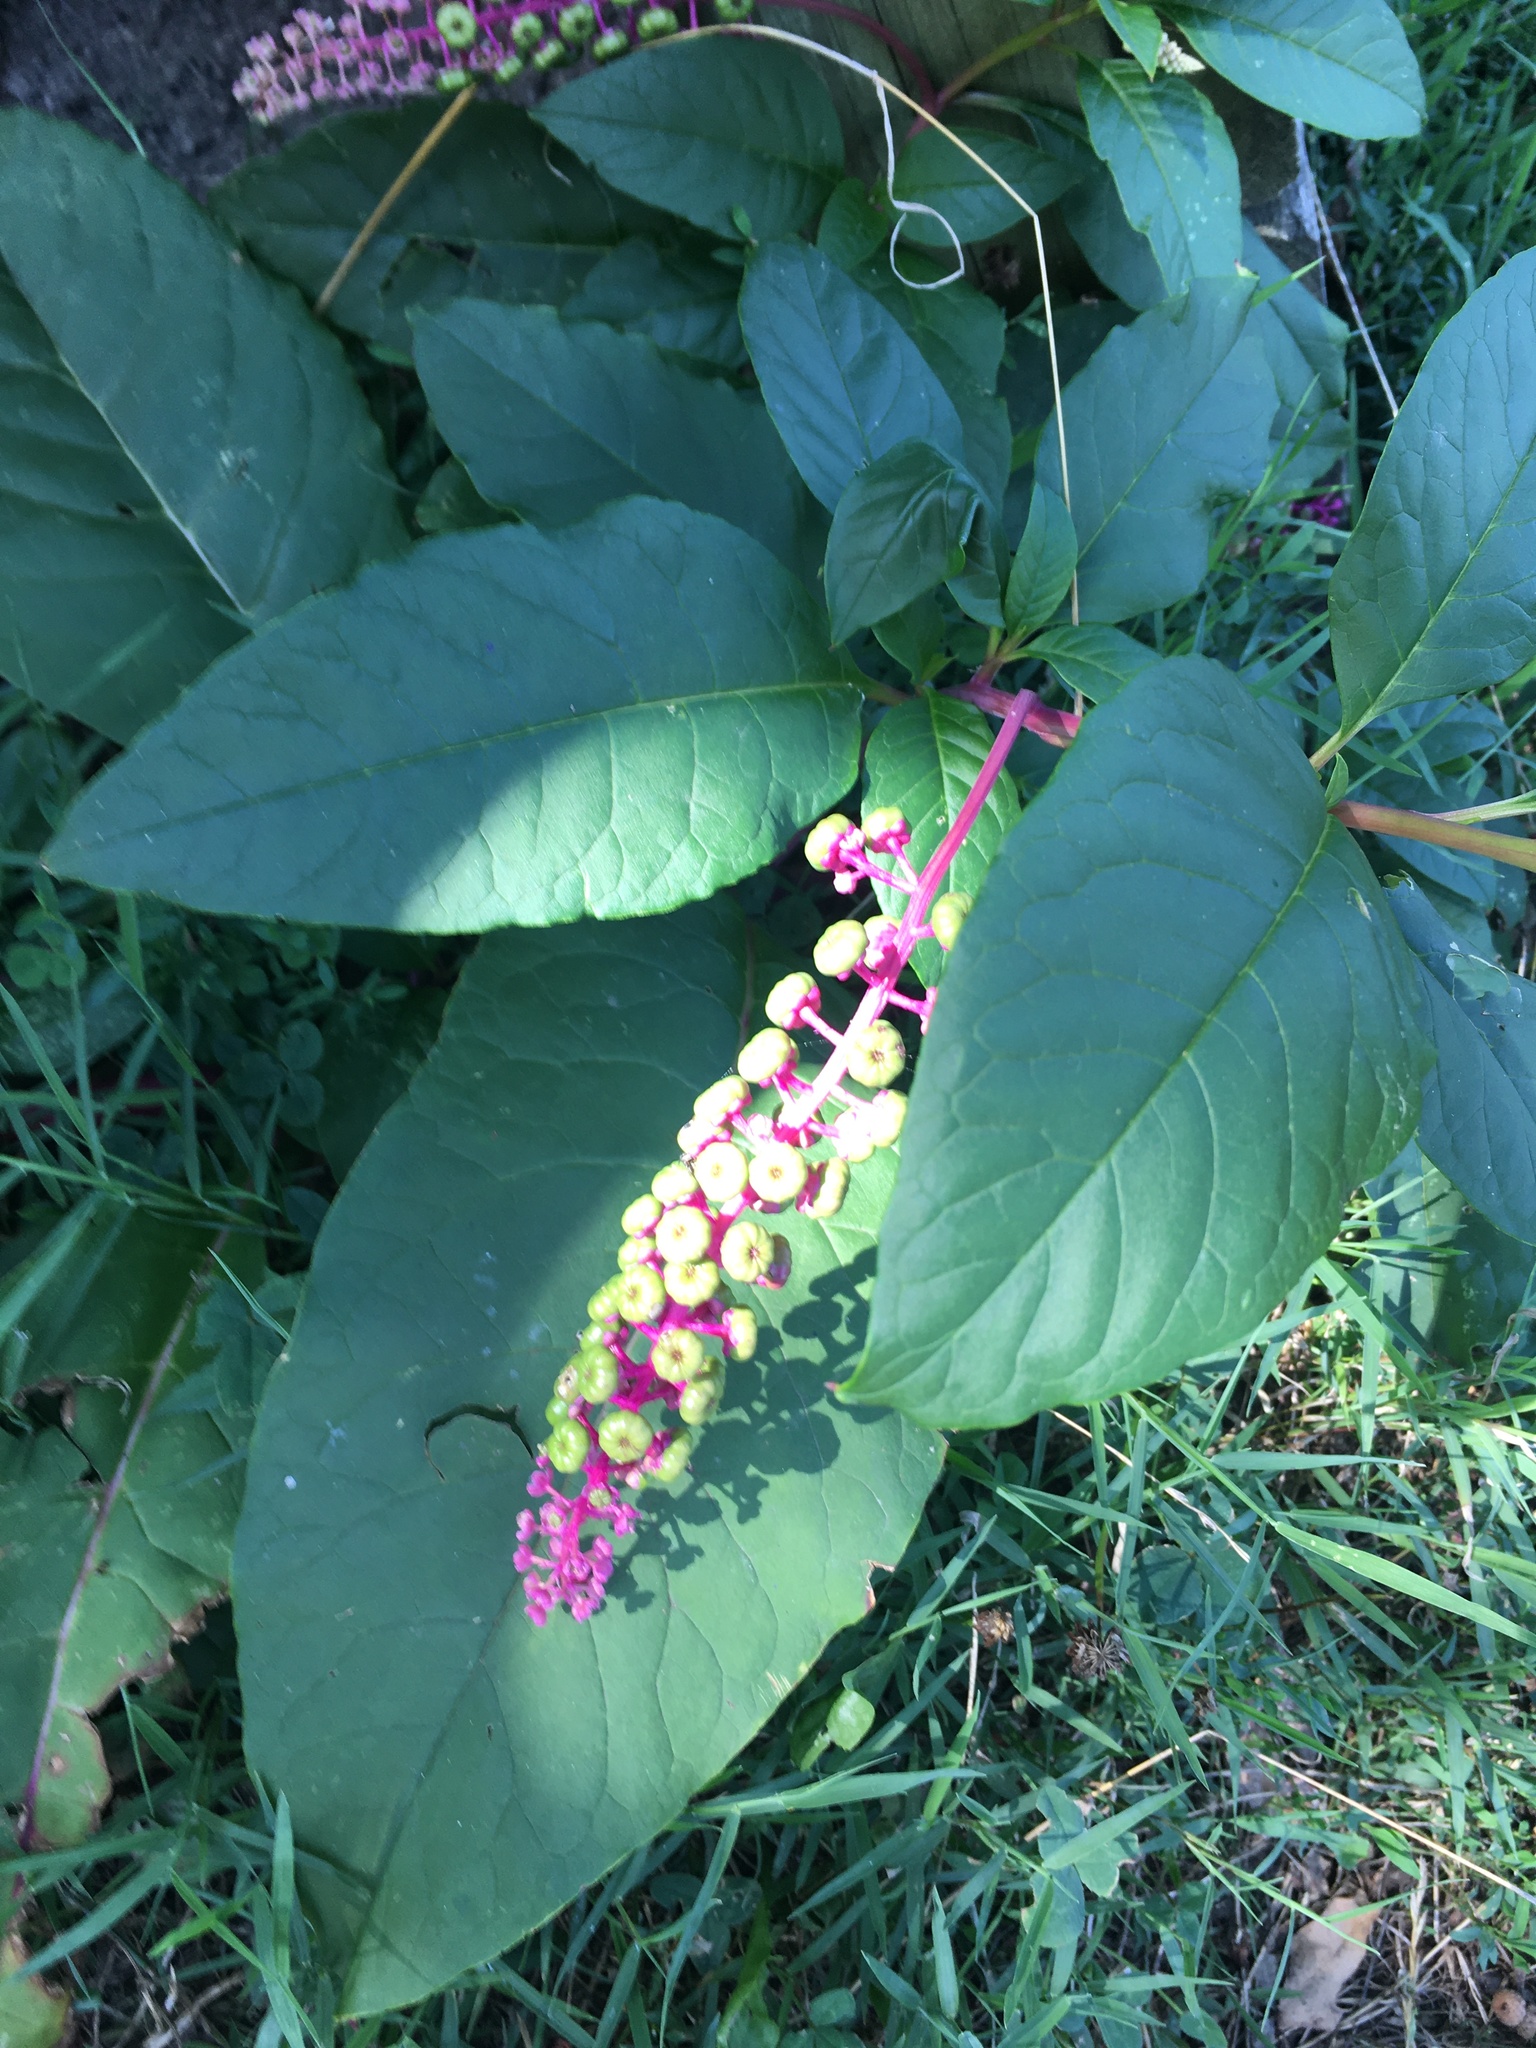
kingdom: Plantae
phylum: Tracheophyta
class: Magnoliopsida
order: Caryophyllales
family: Phytolaccaceae
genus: Phytolacca
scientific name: Phytolacca americana
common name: American pokeweed
